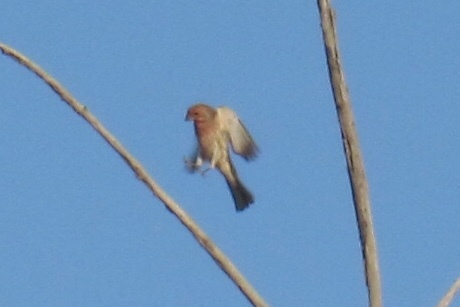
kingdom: Animalia
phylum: Chordata
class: Aves
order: Passeriformes
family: Fringillidae
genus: Haemorhous
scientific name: Haemorhous mexicanus
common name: House finch
